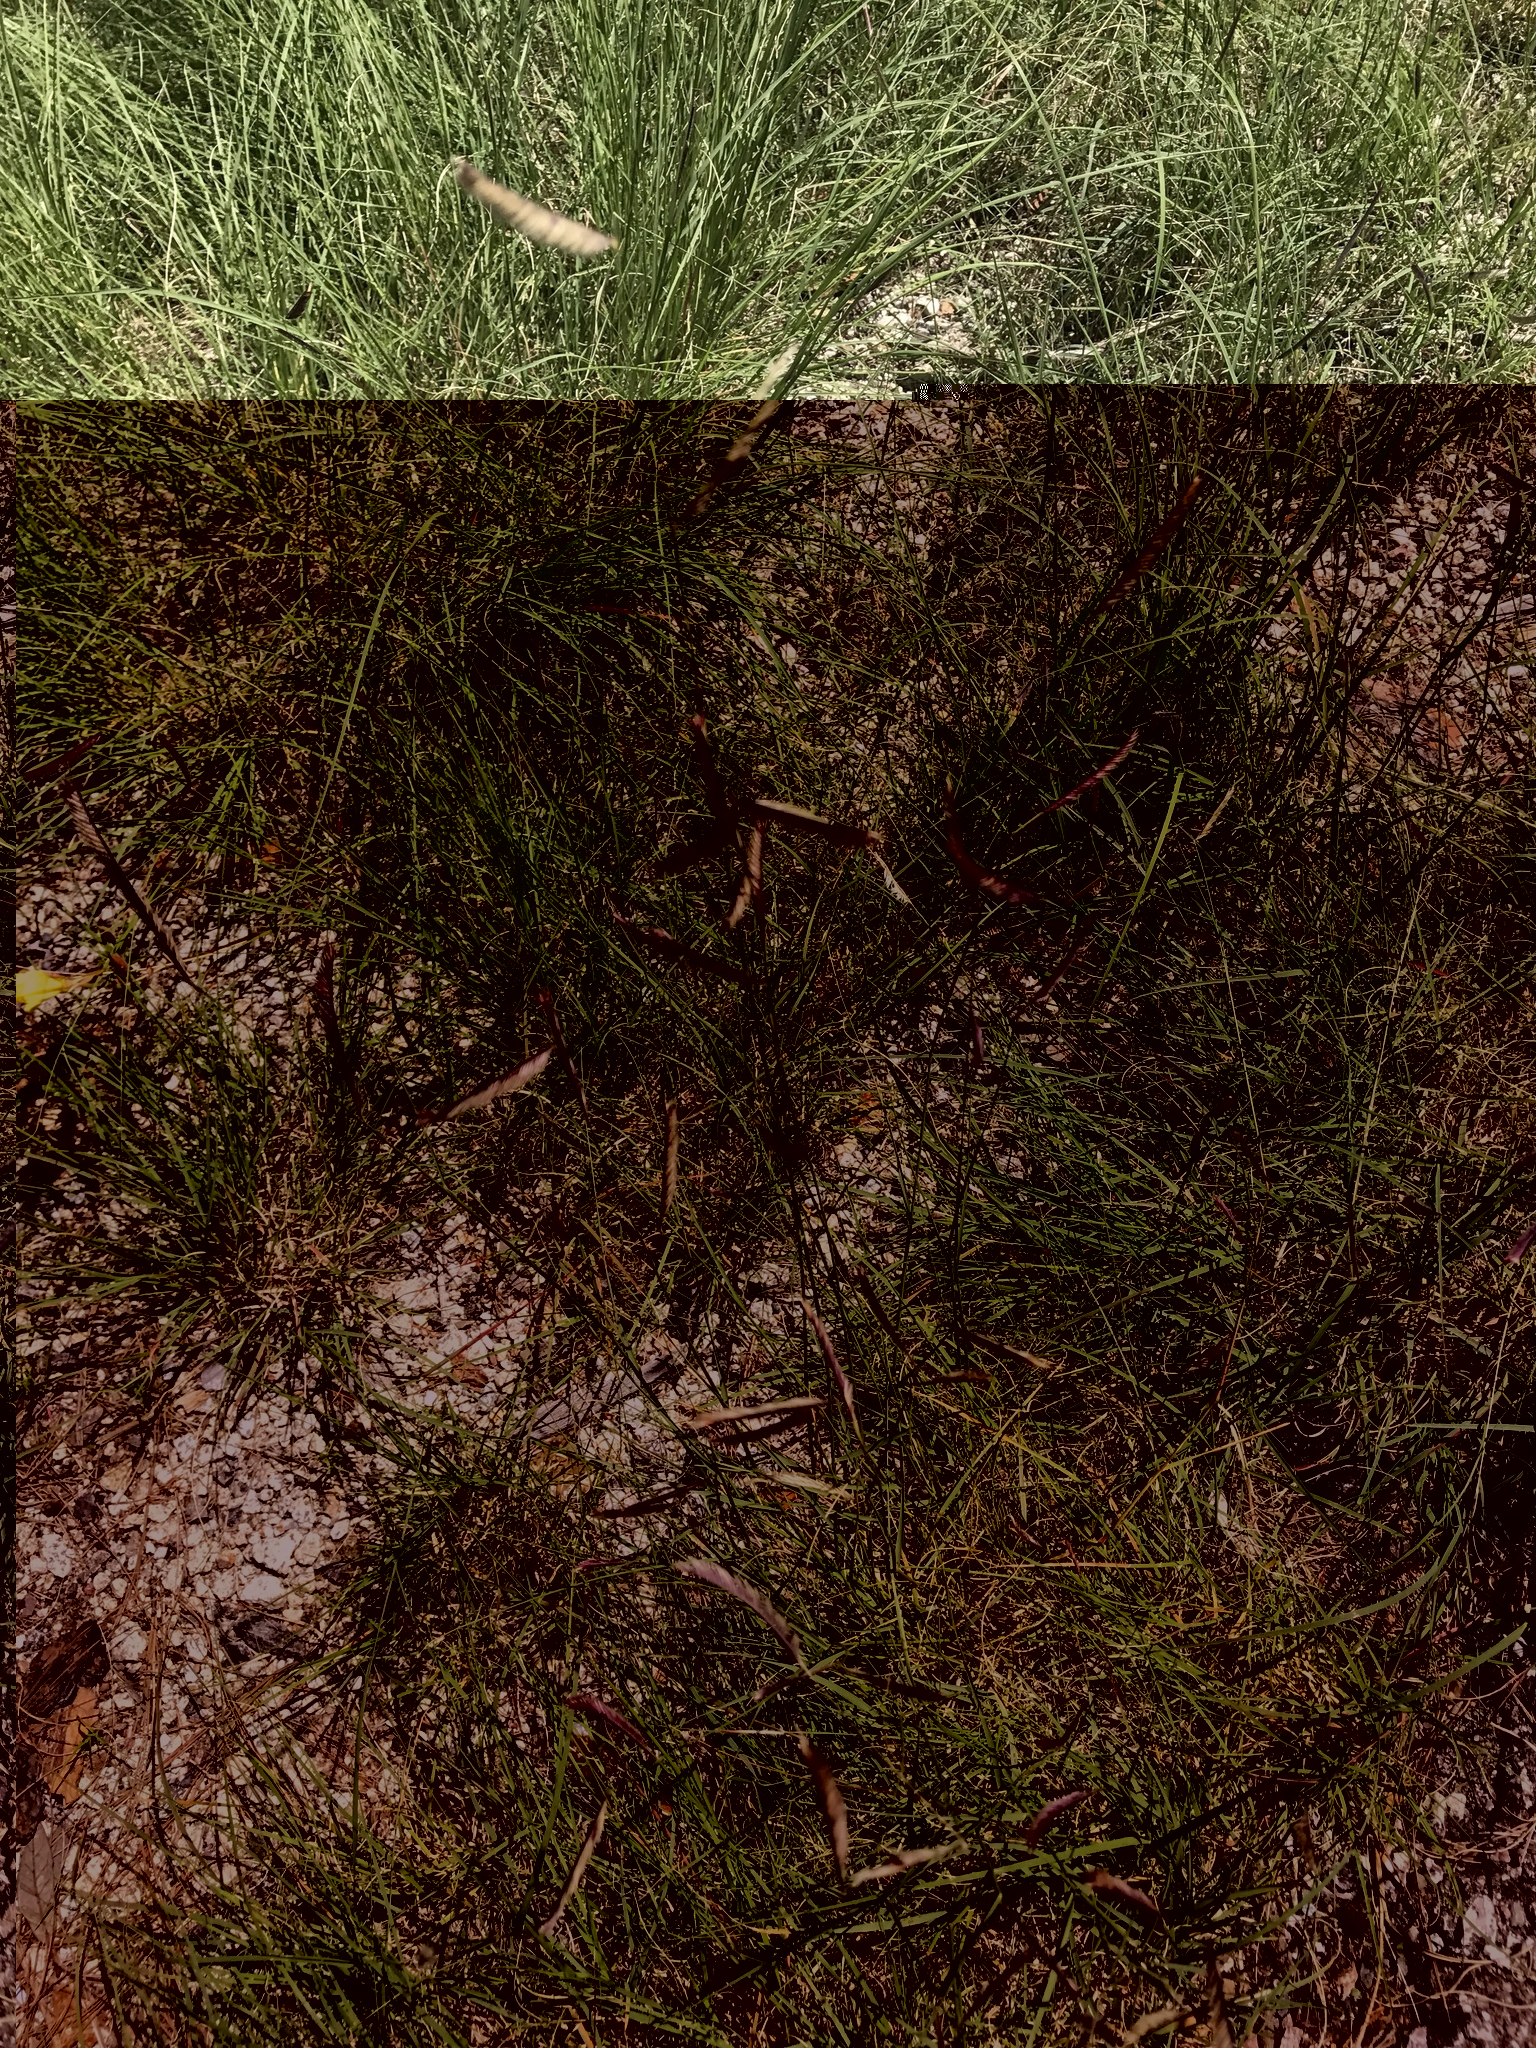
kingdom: Plantae
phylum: Tracheophyta
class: Liliopsida
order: Poales
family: Poaceae
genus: Bouteloua
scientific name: Bouteloua gracilis
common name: Blue grama
